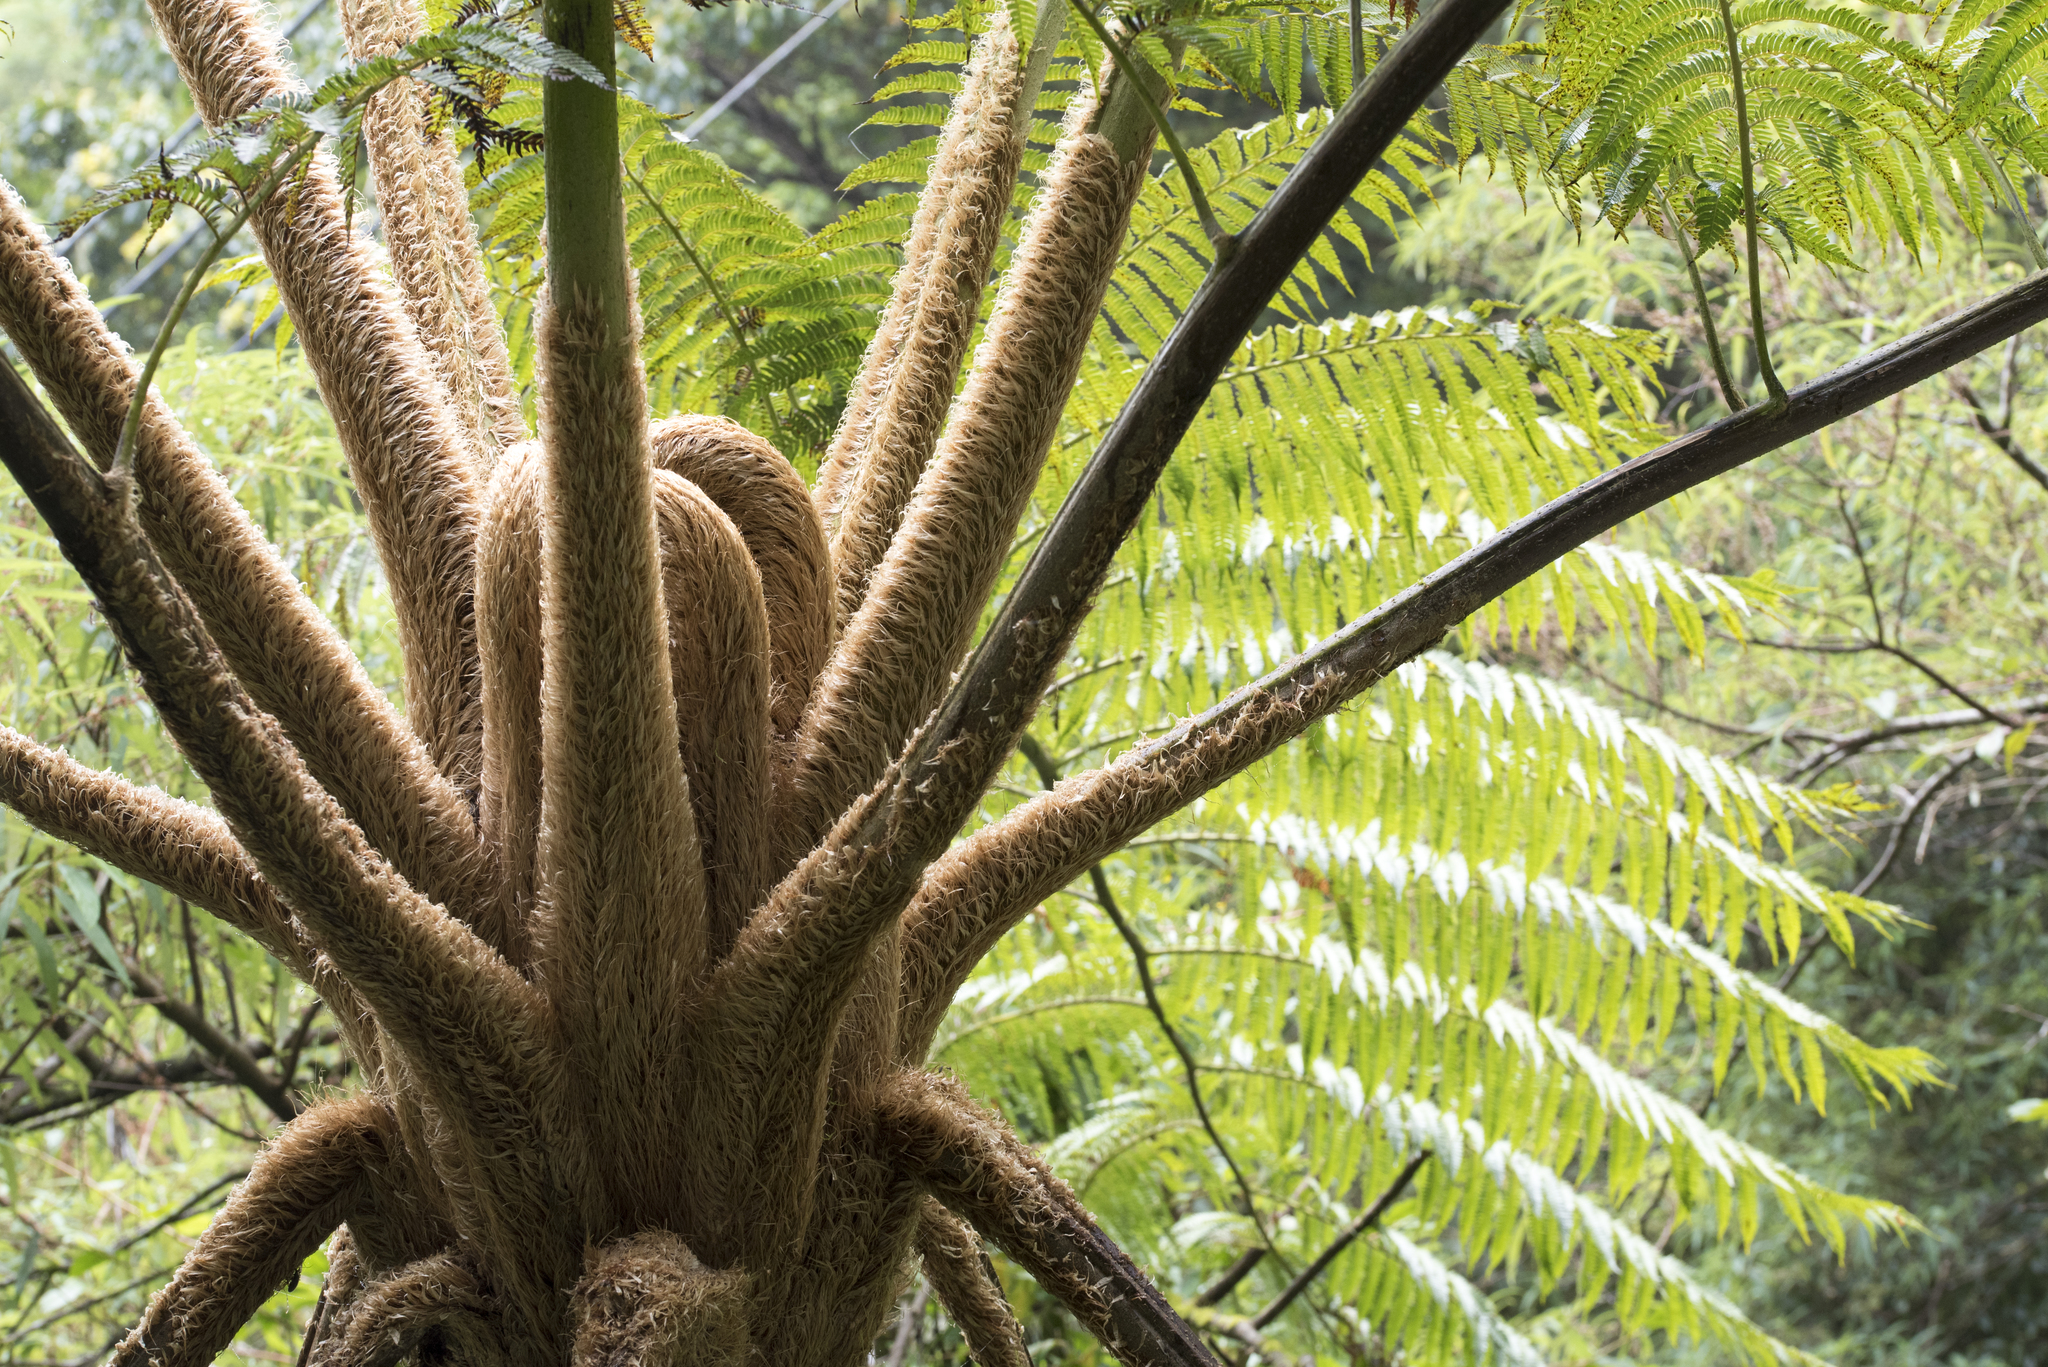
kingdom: Plantae
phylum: Tracheophyta
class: Polypodiopsida
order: Cyatheales
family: Cyatheaceae
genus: Alsophila
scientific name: Alsophila lepifera
